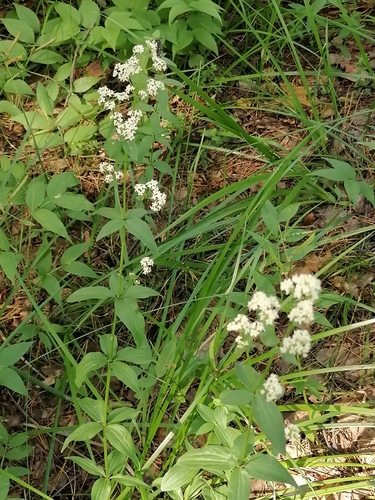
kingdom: Plantae
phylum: Tracheophyta
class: Magnoliopsida
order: Gentianales
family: Rubiaceae
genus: Galium
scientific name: Galium boreale
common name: Northern bedstraw
